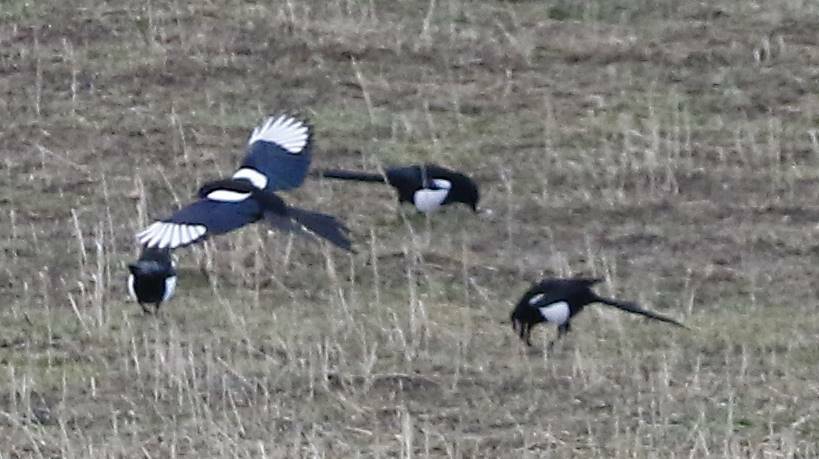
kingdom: Animalia
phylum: Chordata
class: Aves
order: Passeriformes
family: Corvidae
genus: Pica
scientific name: Pica mauritanica
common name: Maghreb magpie
